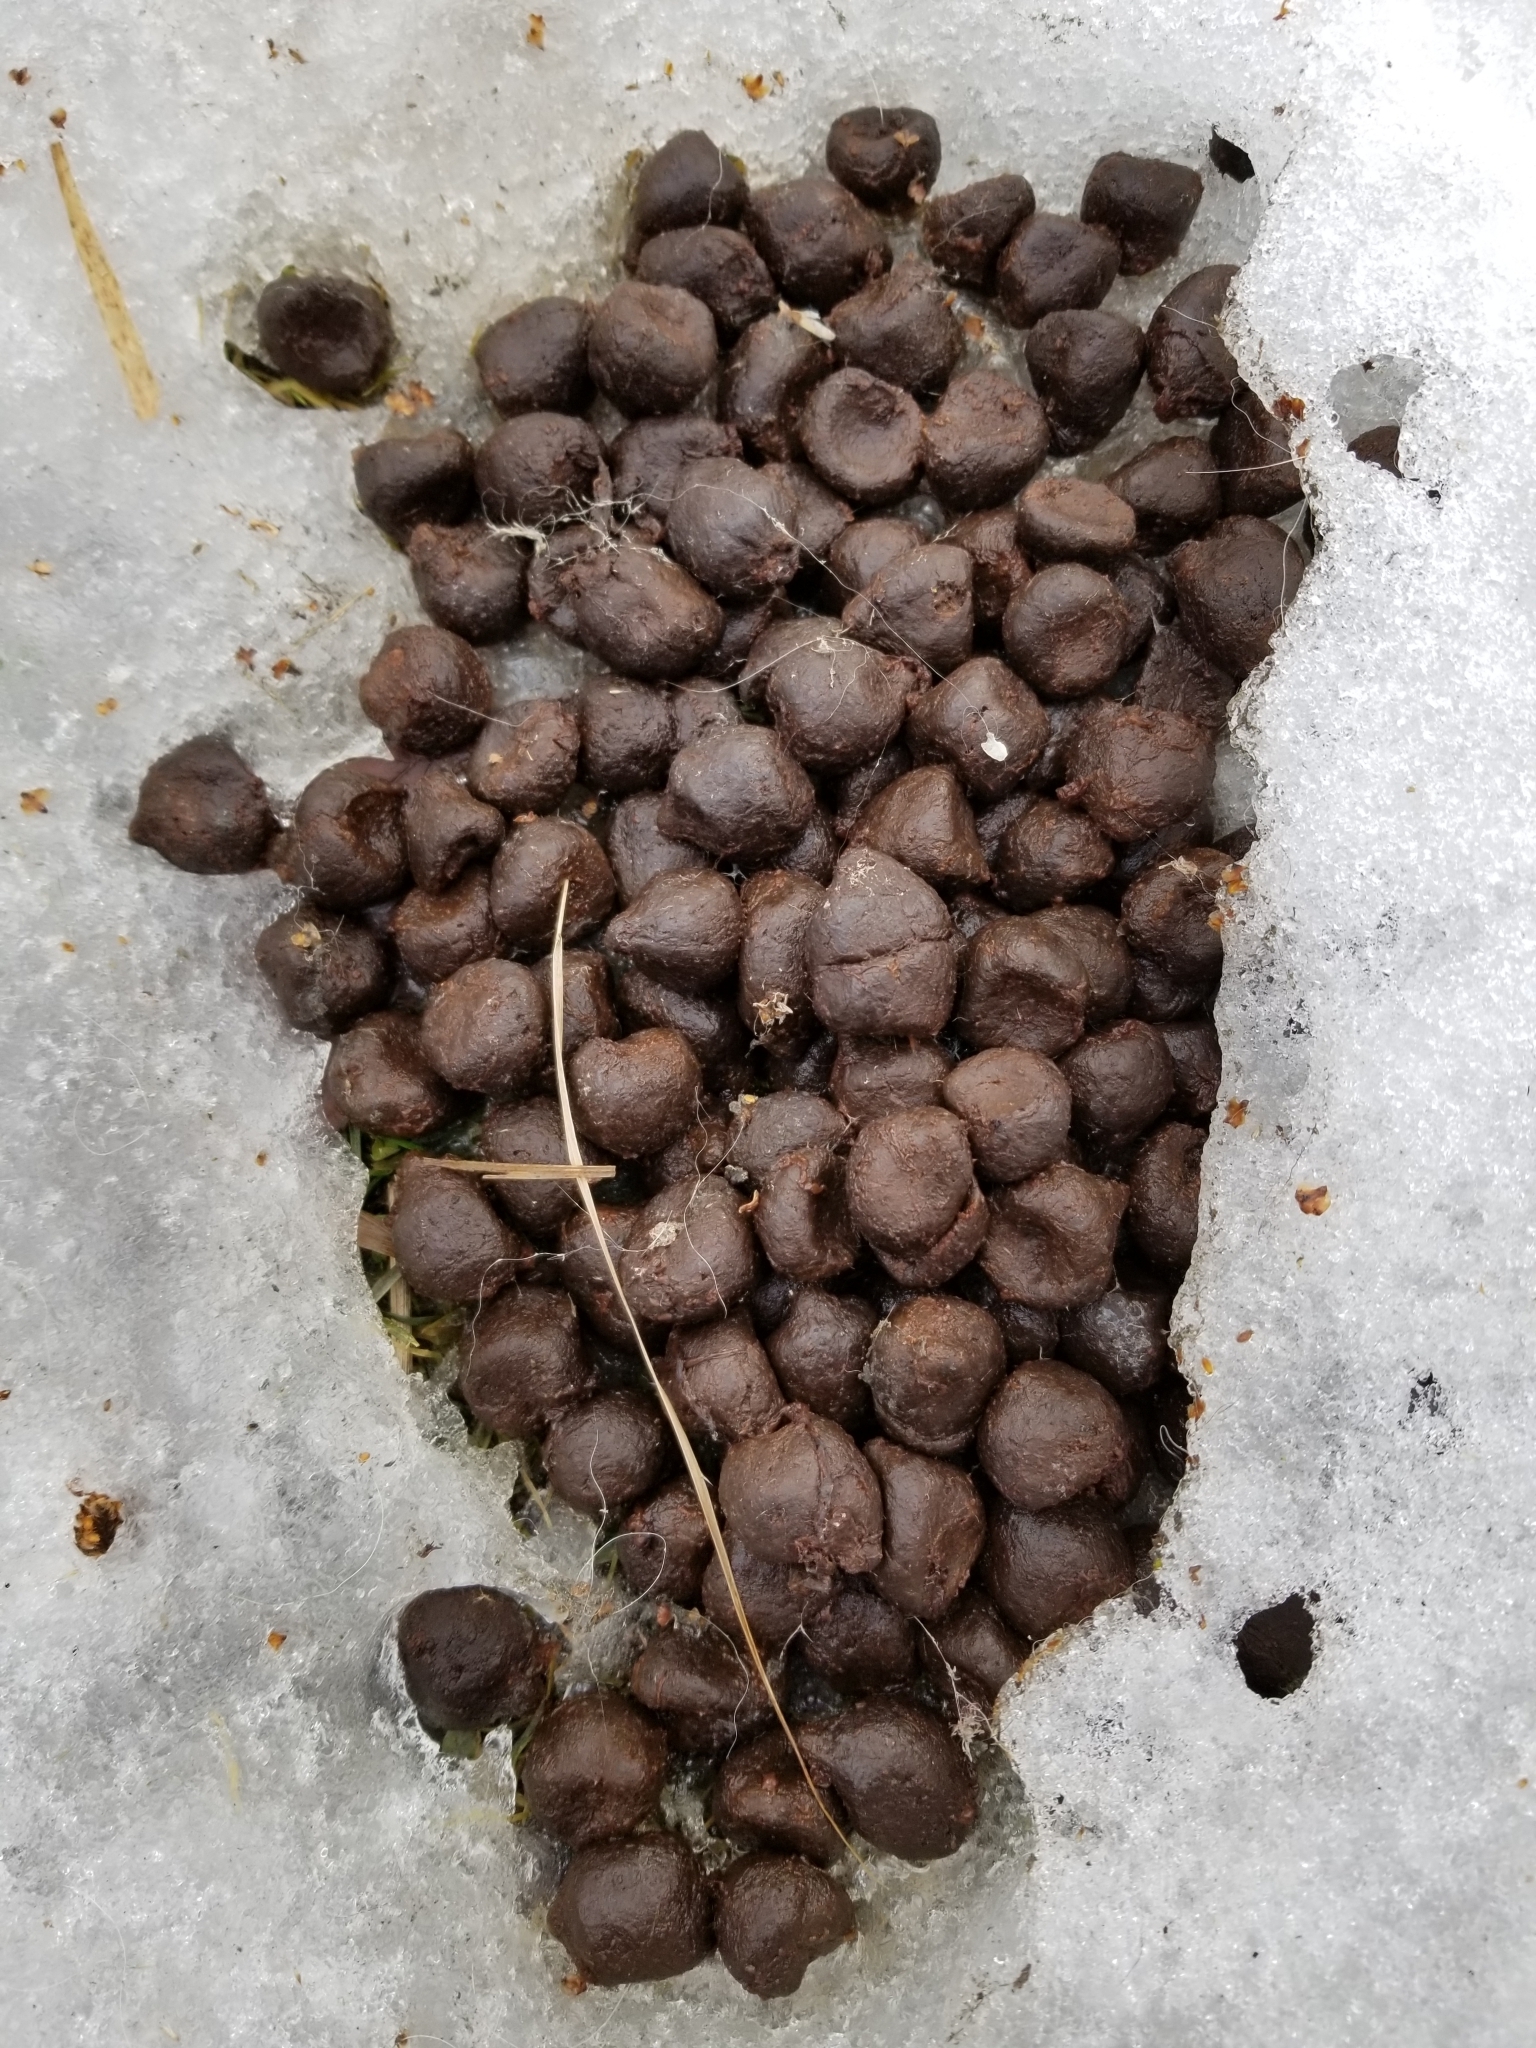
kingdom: Animalia
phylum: Chordata
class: Mammalia
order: Artiodactyla
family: Cervidae
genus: Alces
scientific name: Alces alces
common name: Moose
